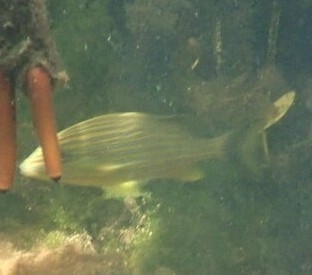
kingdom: Animalia
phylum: Chordata
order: Perciformes
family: Haemulidae
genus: Haemulon
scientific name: Haemulon sciurus
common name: Bluestriped grunt
